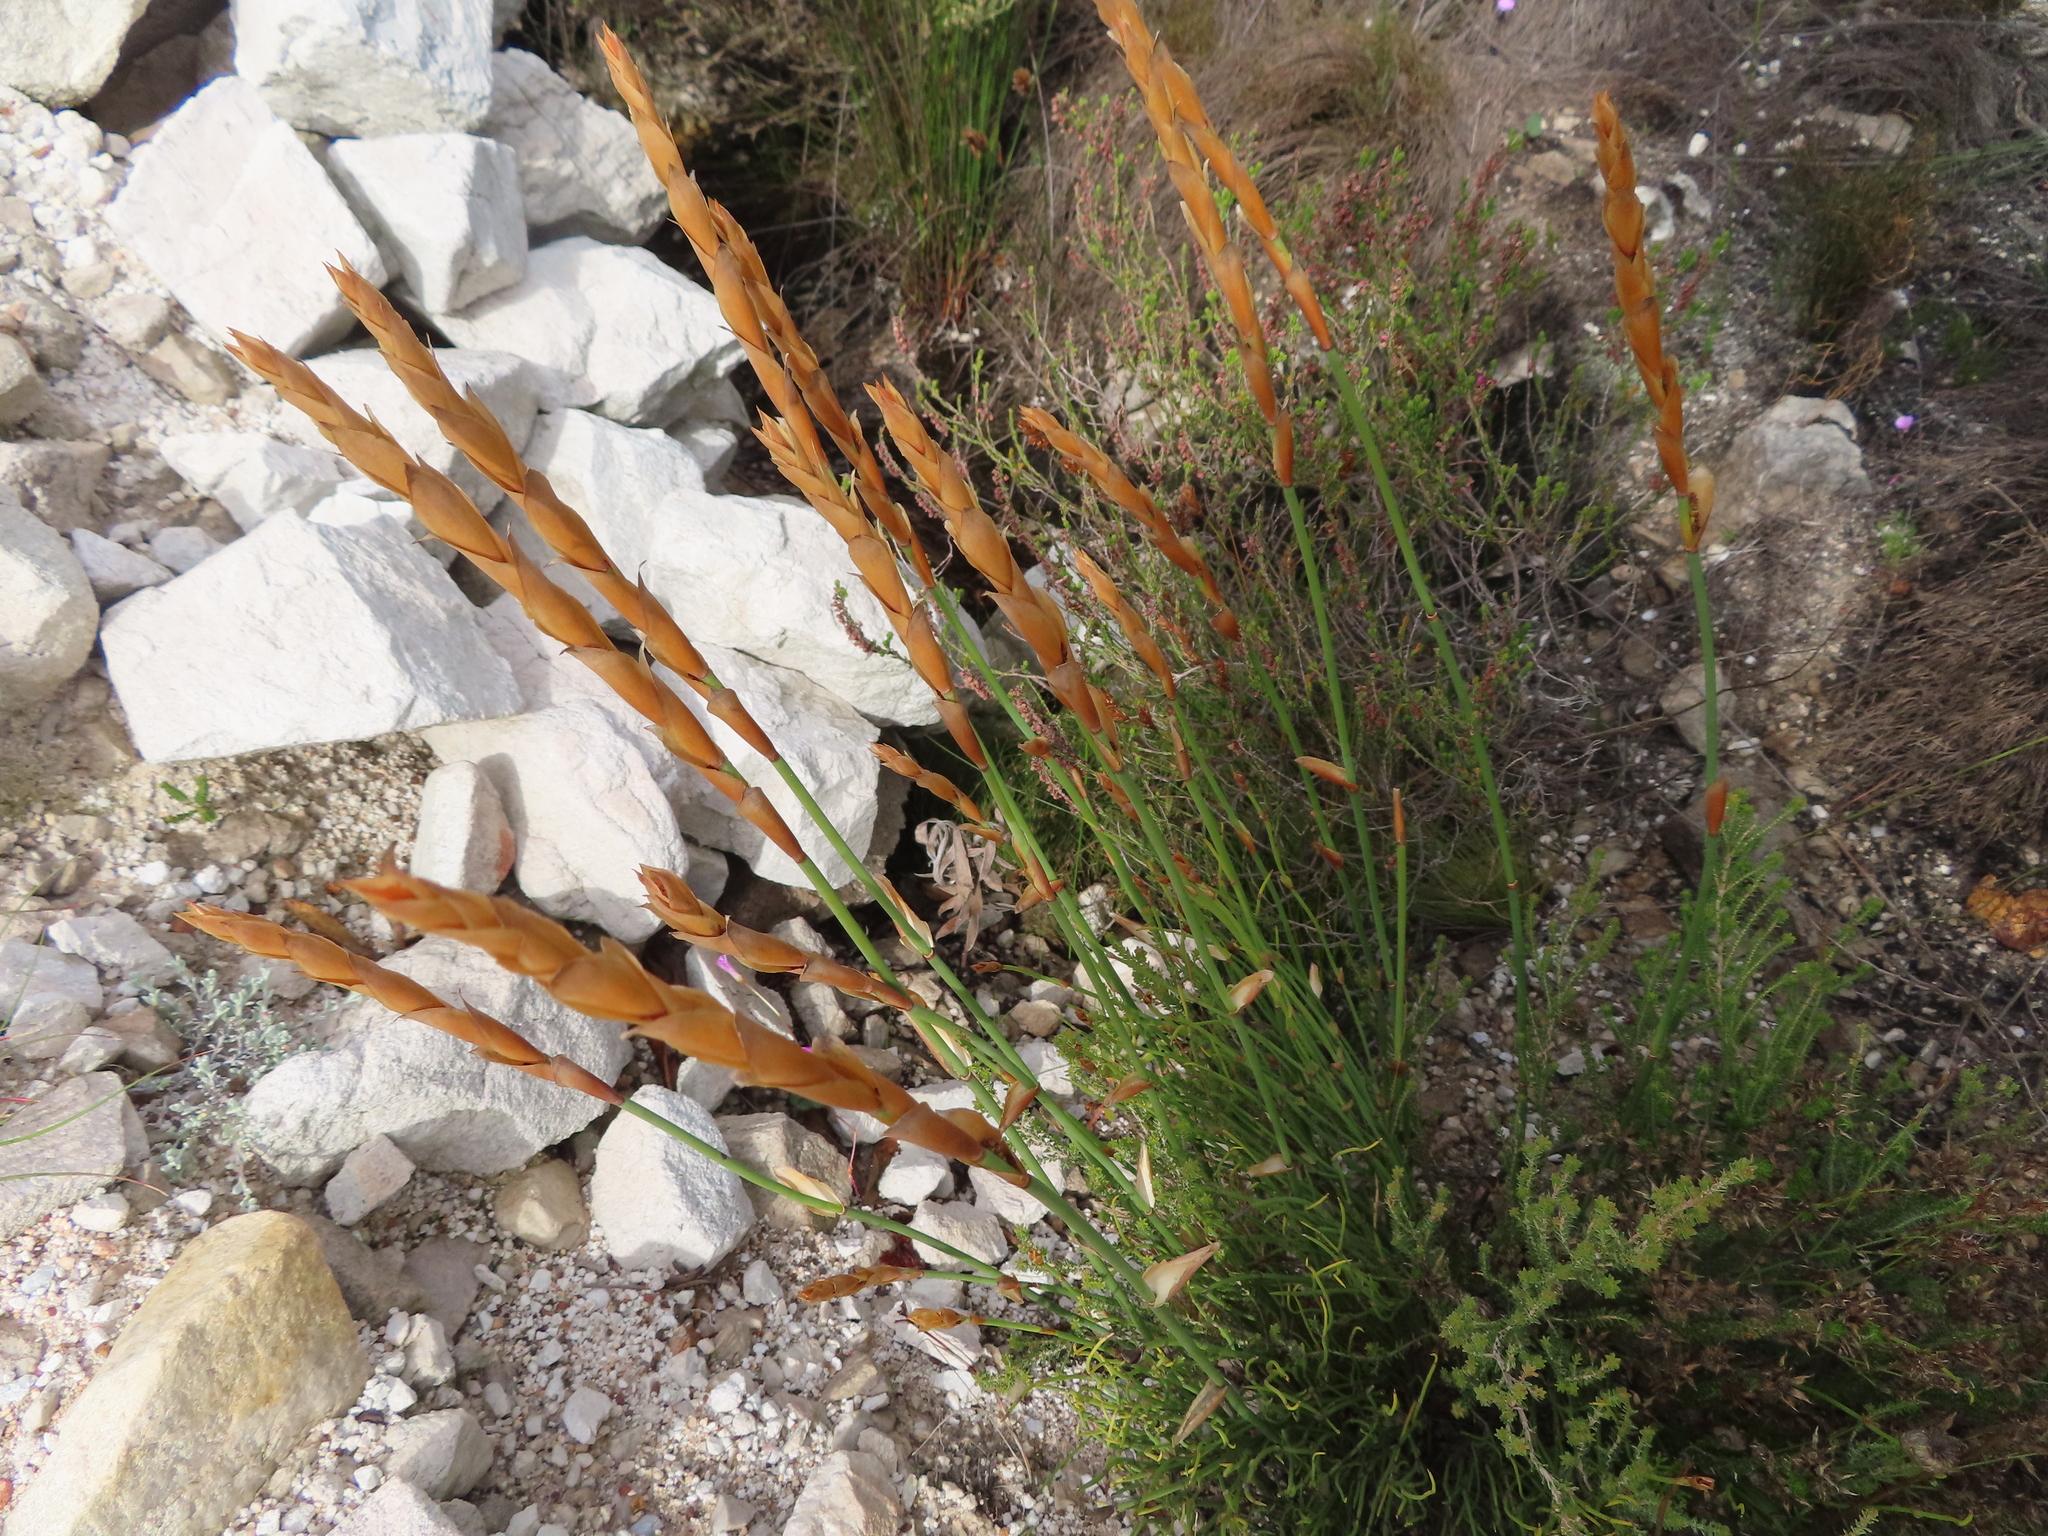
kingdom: Plantae
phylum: Tracheophyta
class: Liliopsida
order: Poales
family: Restionaceae
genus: Elegia
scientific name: Elegia persistens
